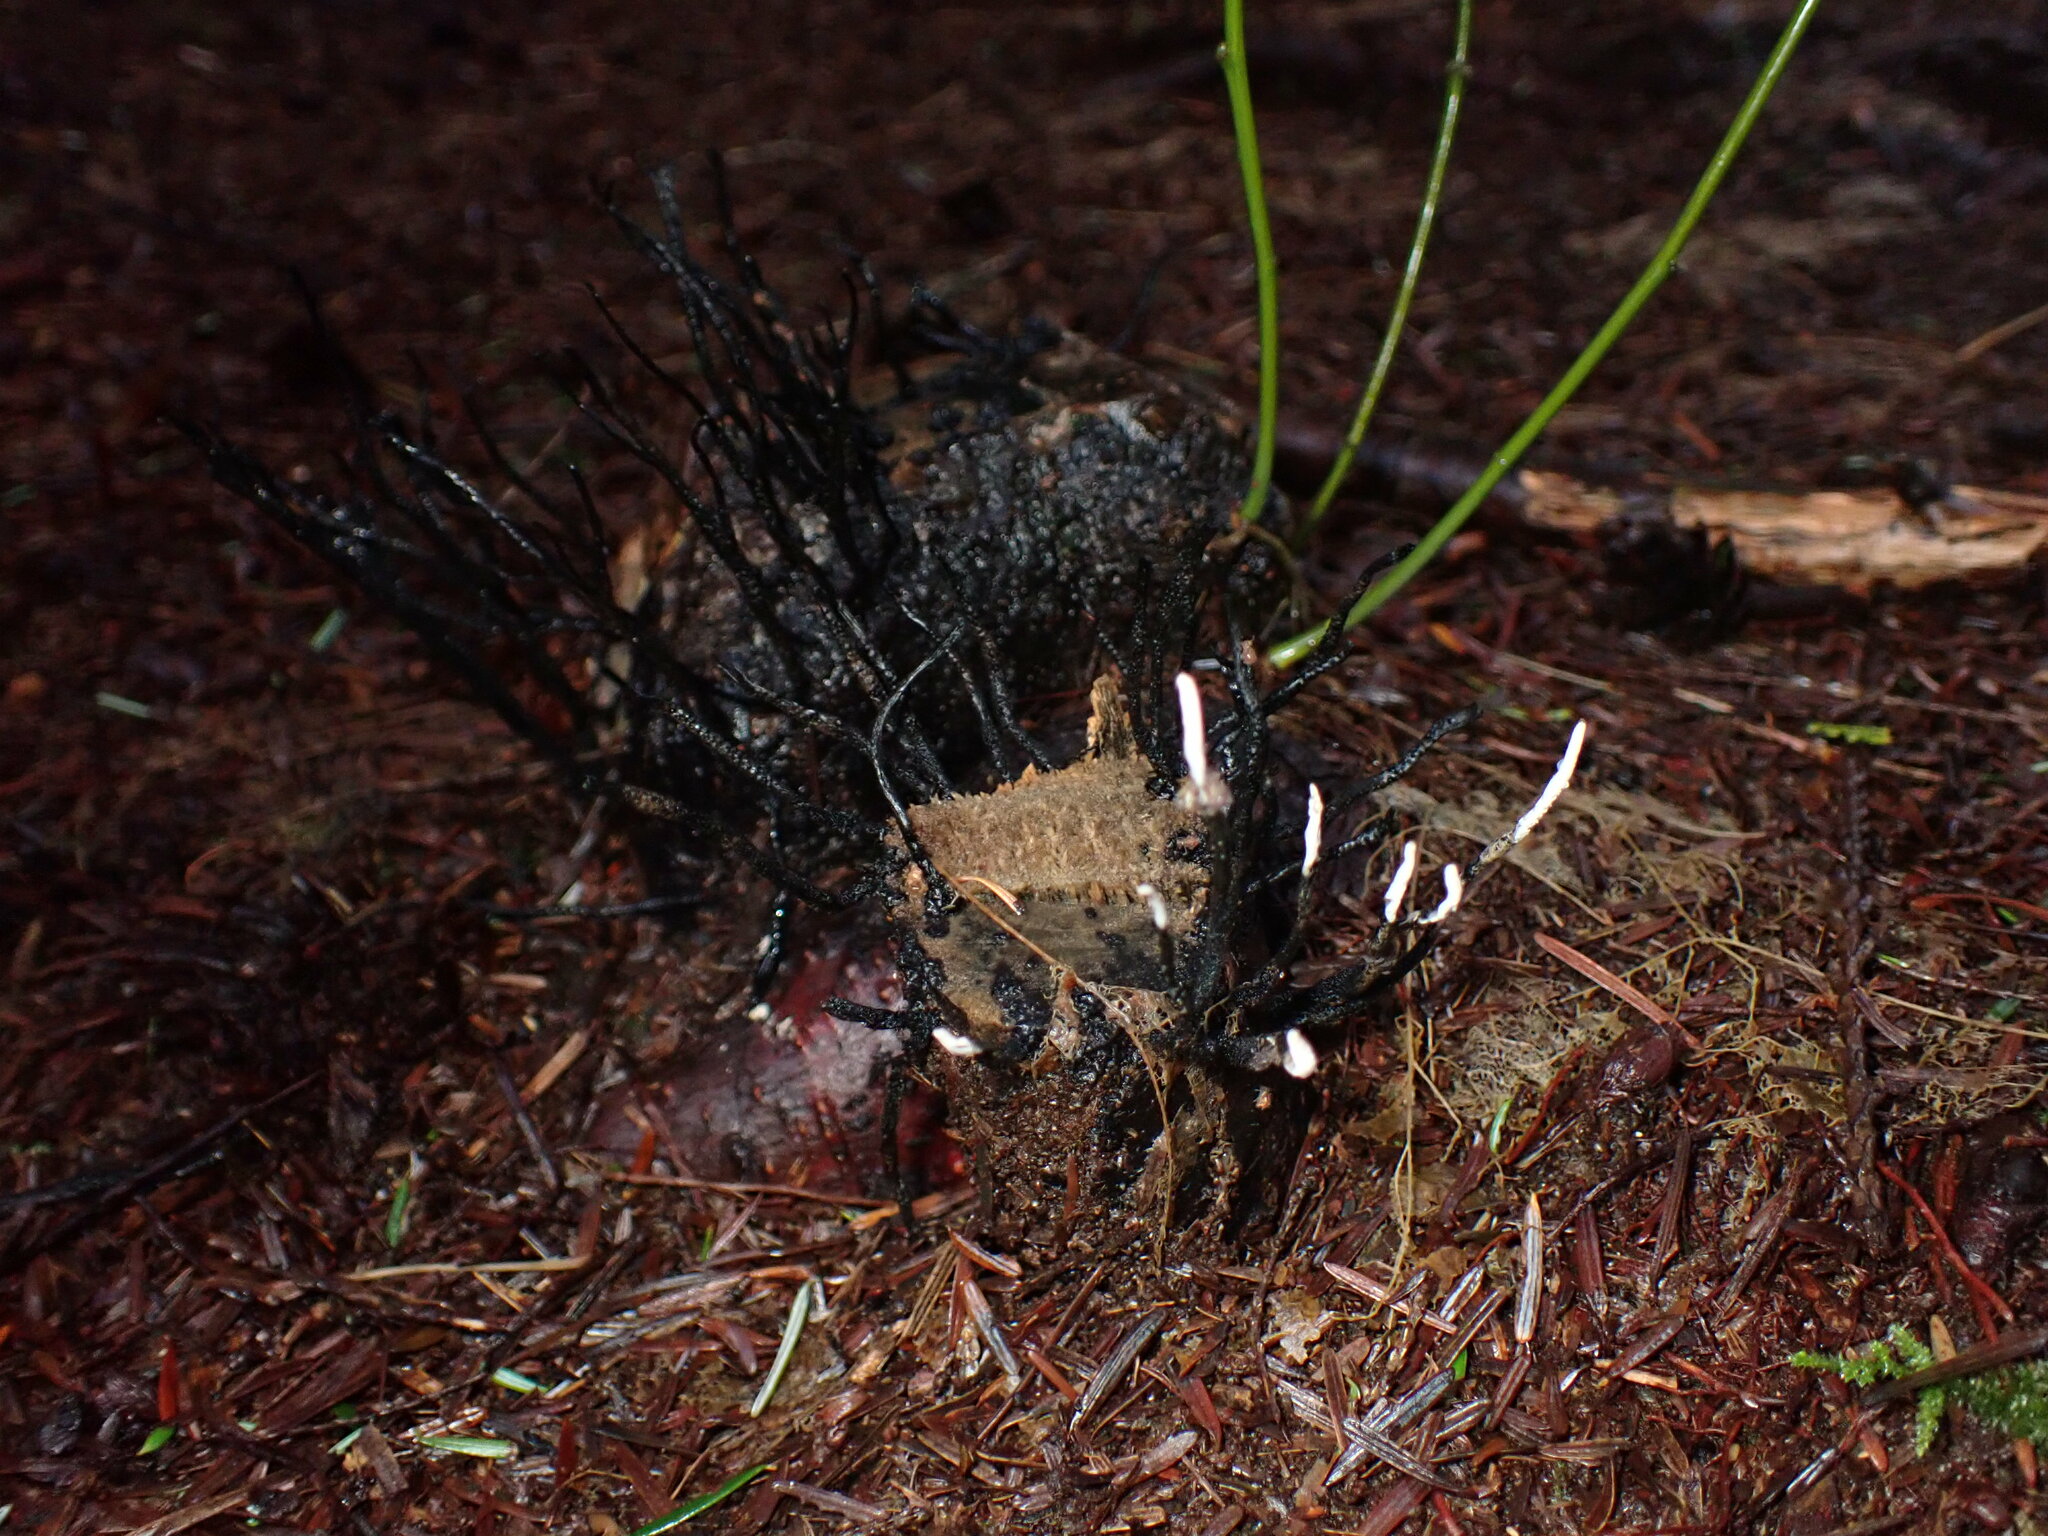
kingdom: Fungi
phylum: Ascomycota
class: Sordariomycetes
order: Xylariales
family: Xylariaceae
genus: Xylaria
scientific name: Xylaria hypoxylon
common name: Candle-snuff fungus
